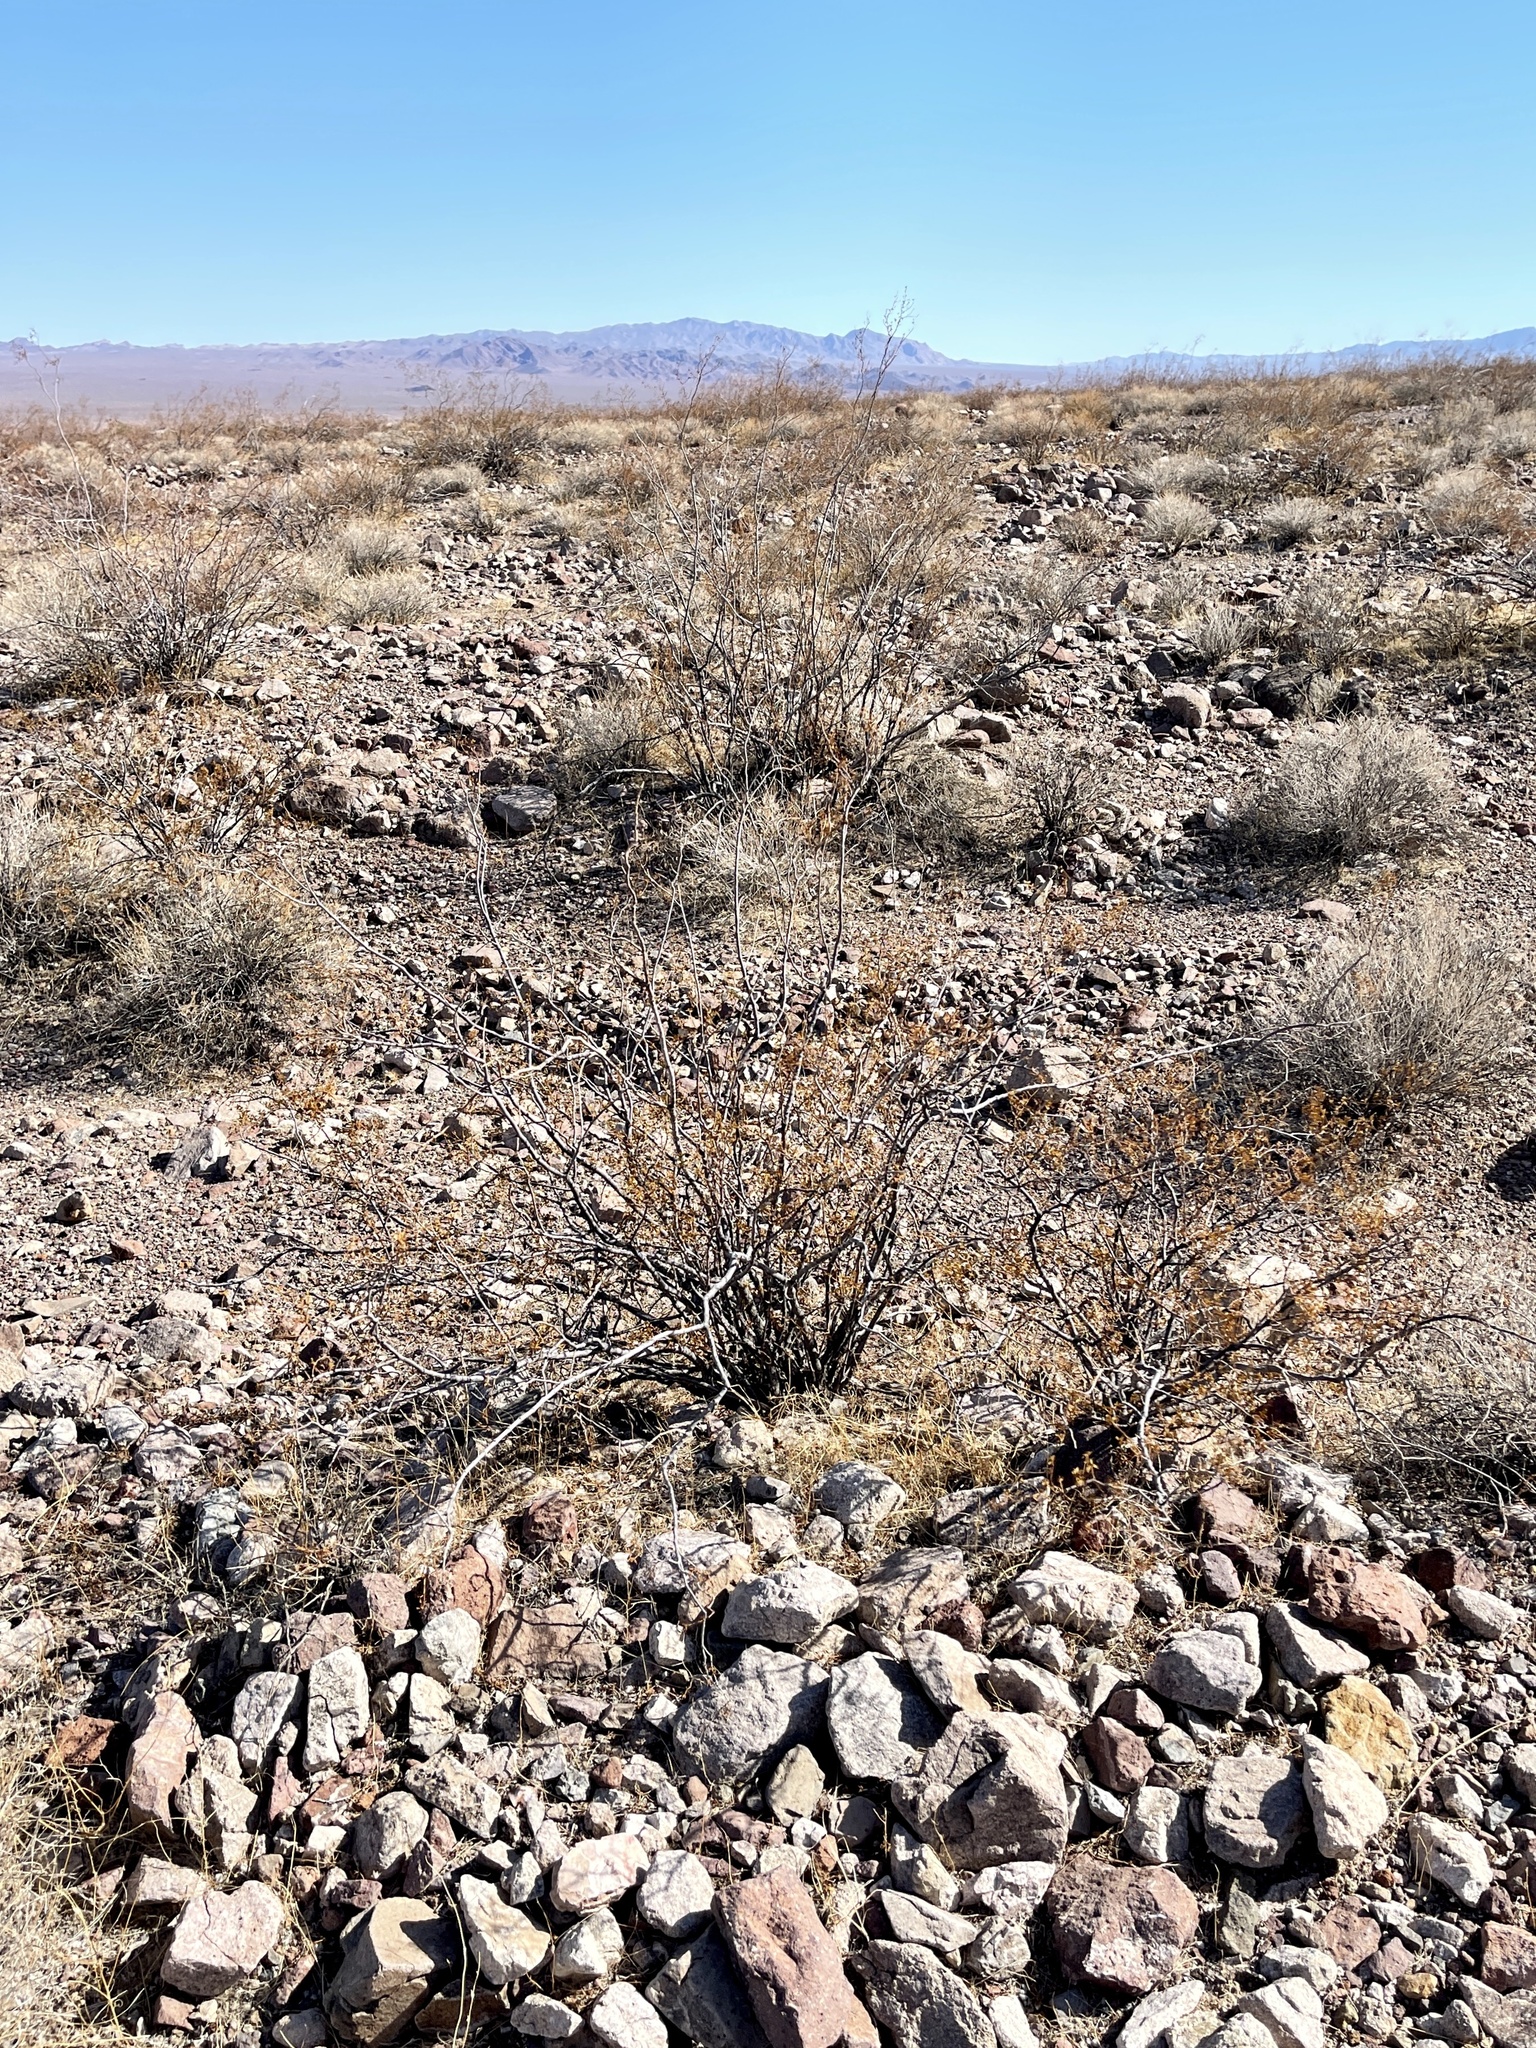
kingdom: Plantae
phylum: Tracheophyta
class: Magnoliopsida
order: Zygophyllales
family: Zygophyllaceae
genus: Larrea
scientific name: Larrea tridentata
